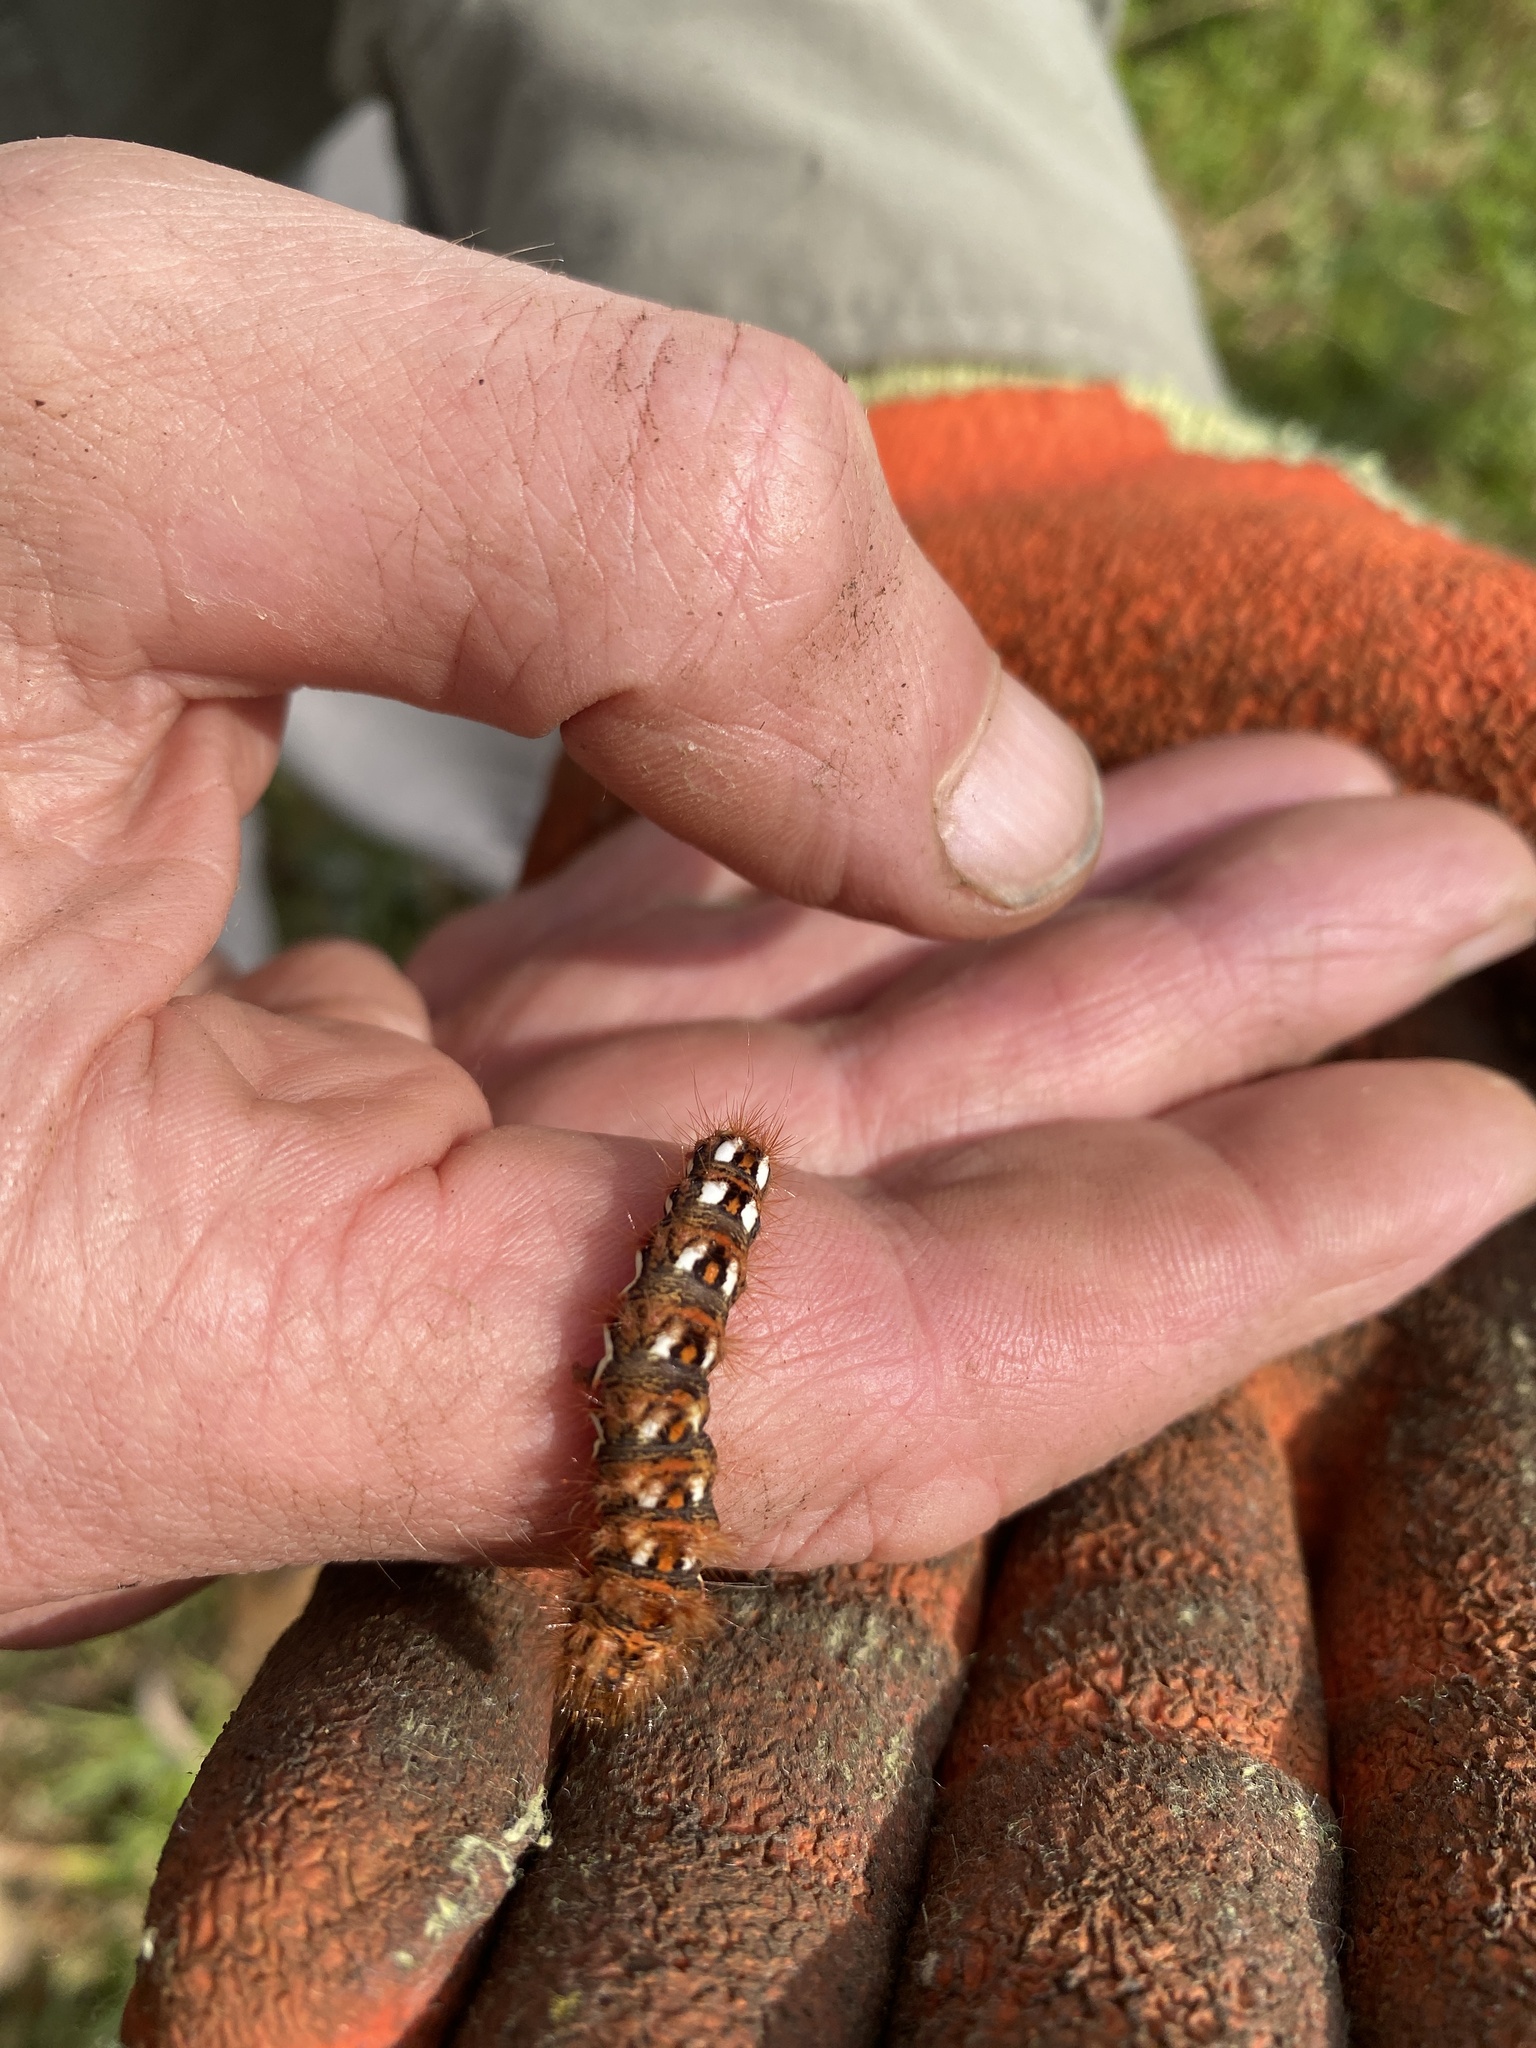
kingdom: Animalia
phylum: Arthropoda
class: Insecta
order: Lepidoptera
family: Noctuidae
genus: Acronicta
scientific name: Acronicta rumicis
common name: Knot grass
